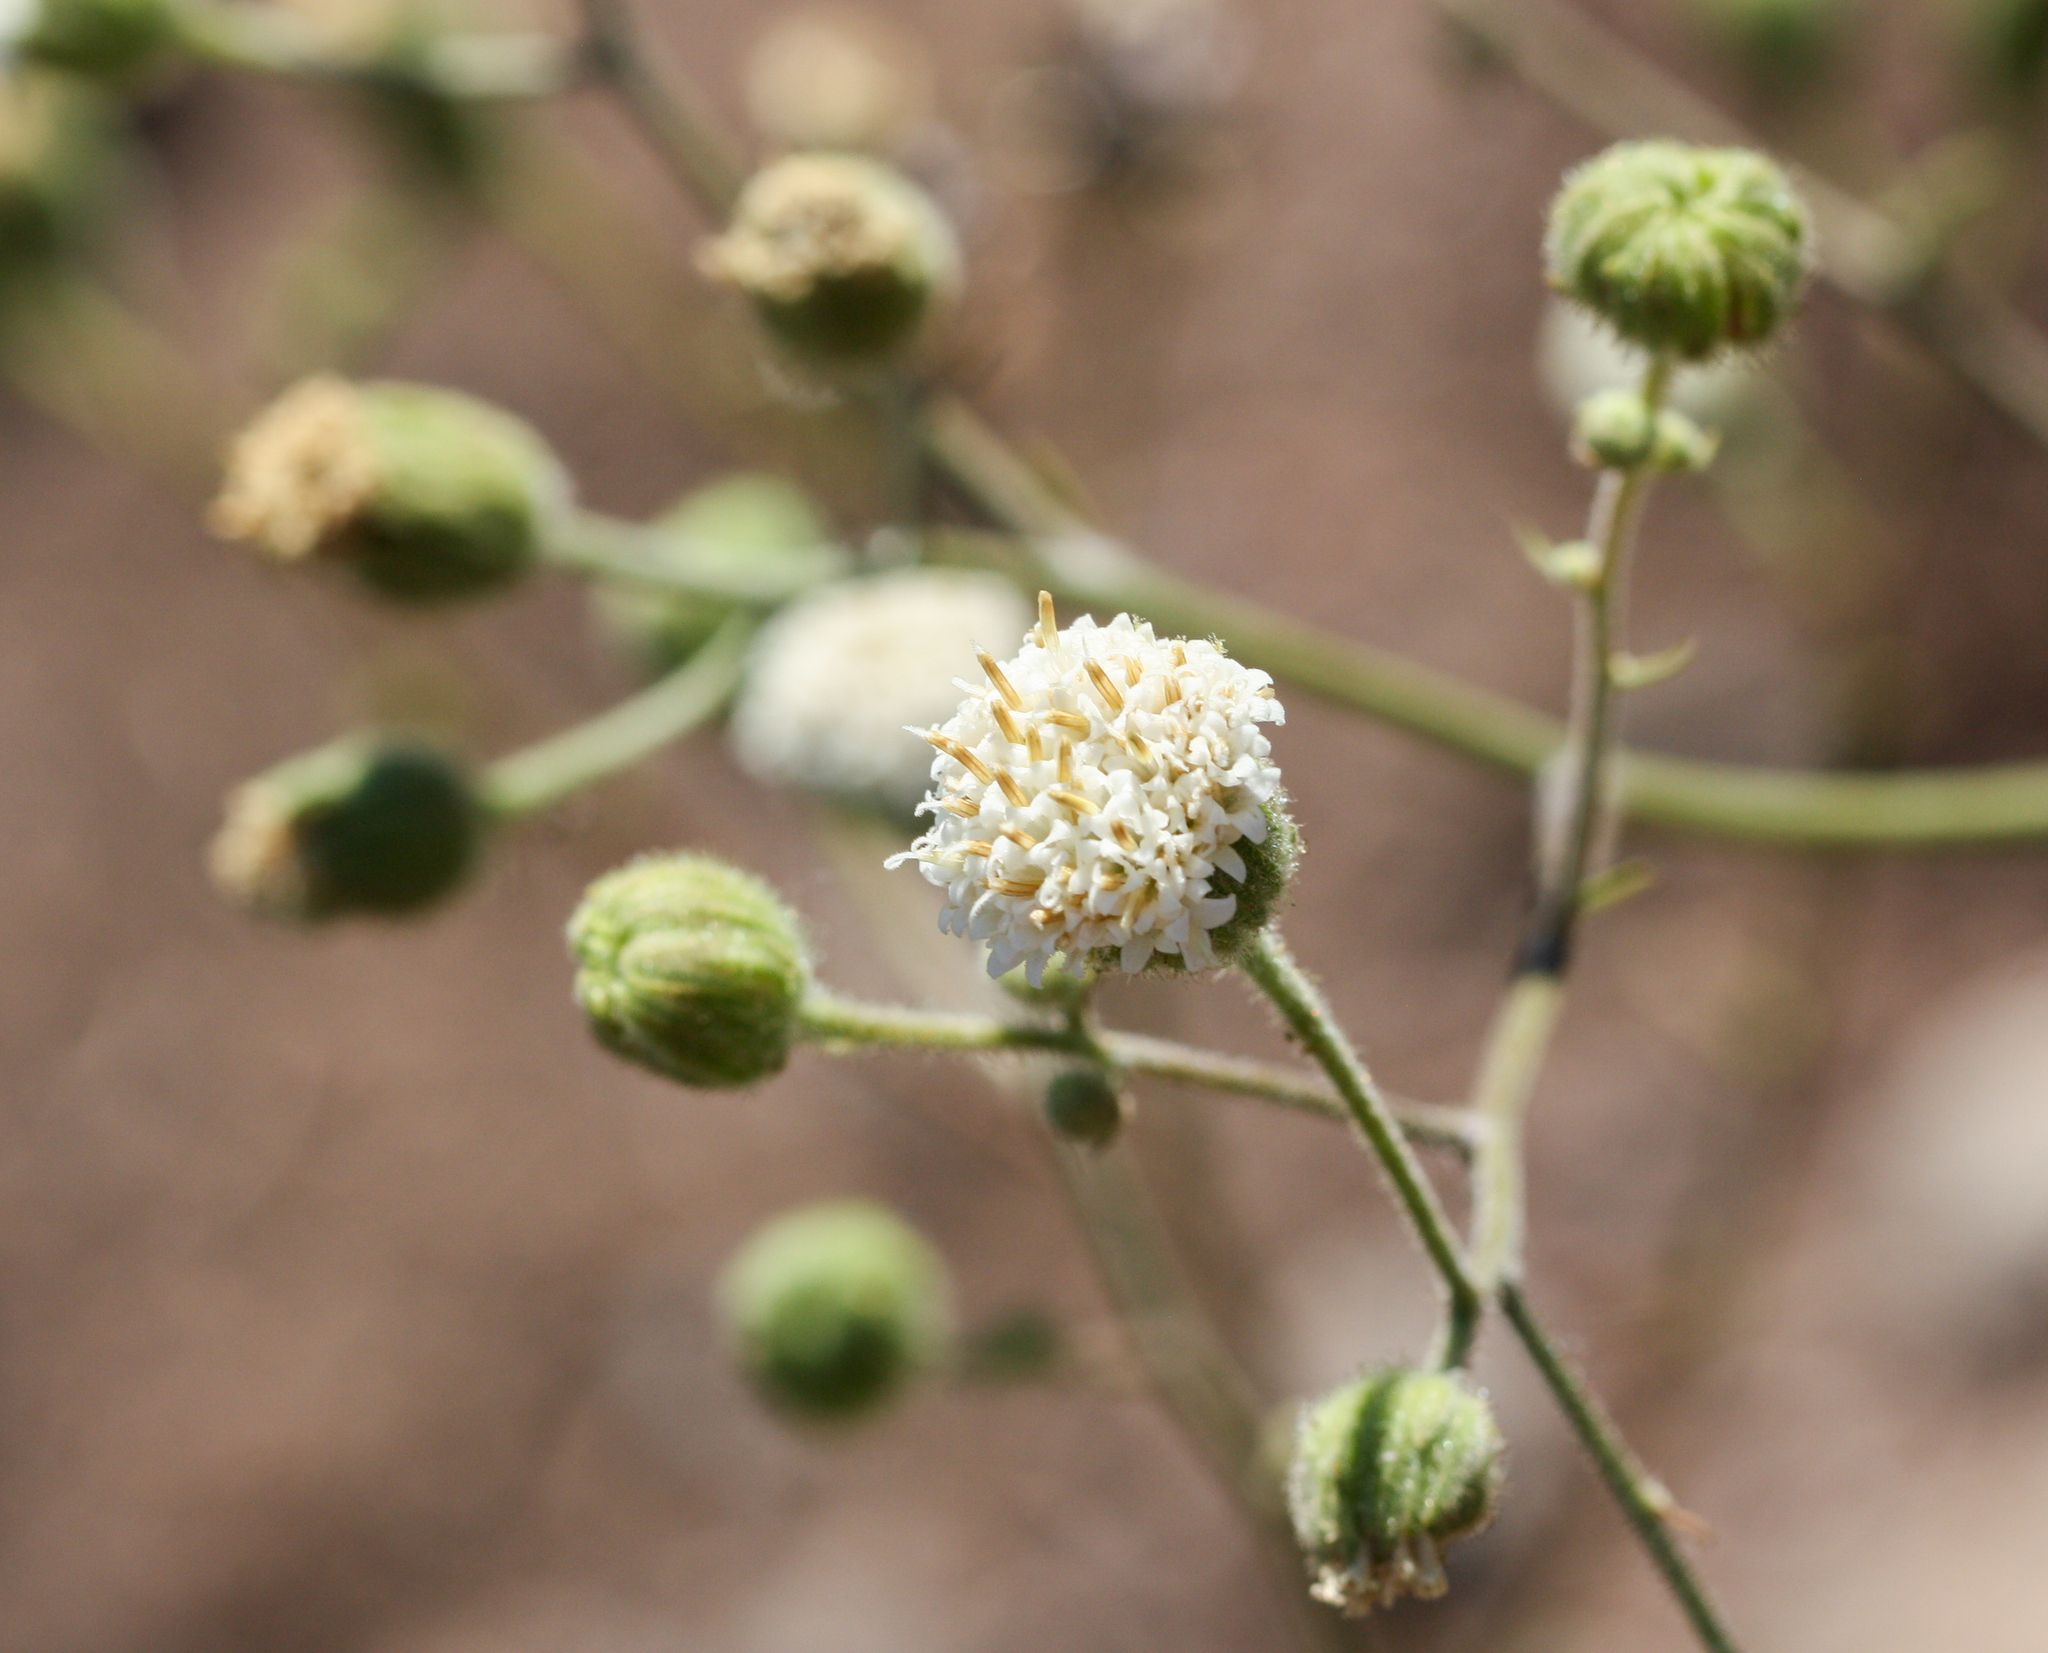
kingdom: Plantae
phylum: Tracheophyta
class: Magnoliopsida
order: Asterales
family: Asteraceae
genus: Chaenactis
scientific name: Chaenactis artemisiifolia
